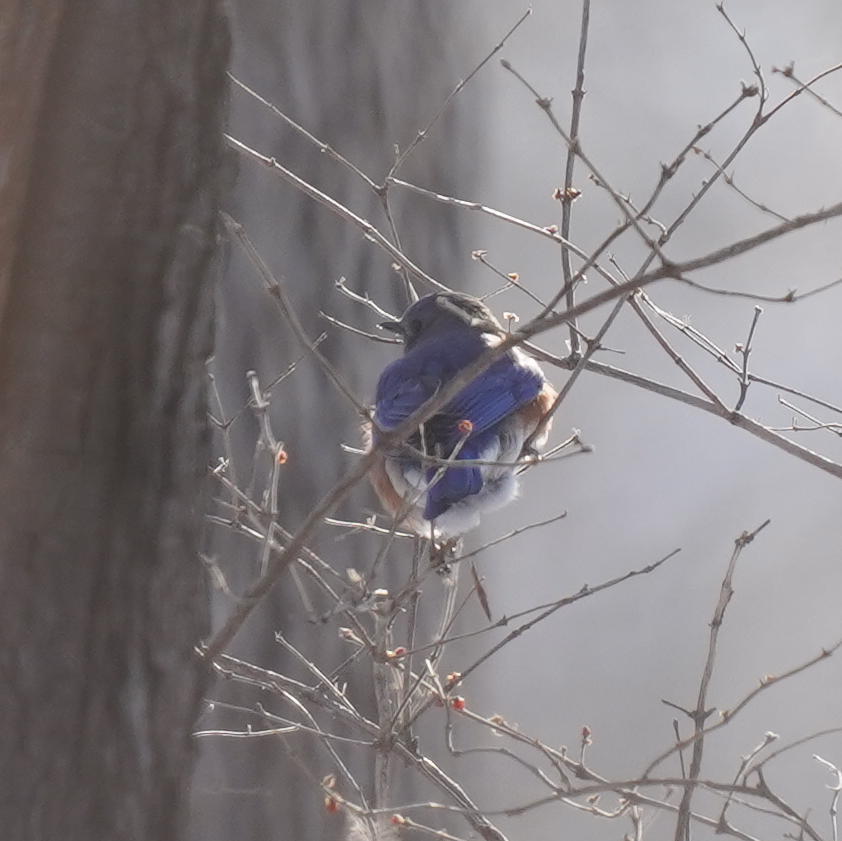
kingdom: Animalia
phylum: Chordata
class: Aves
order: Passeriformes
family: Turdidae
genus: Sialia
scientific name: Sialia sialis
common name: Eastern bluebird
